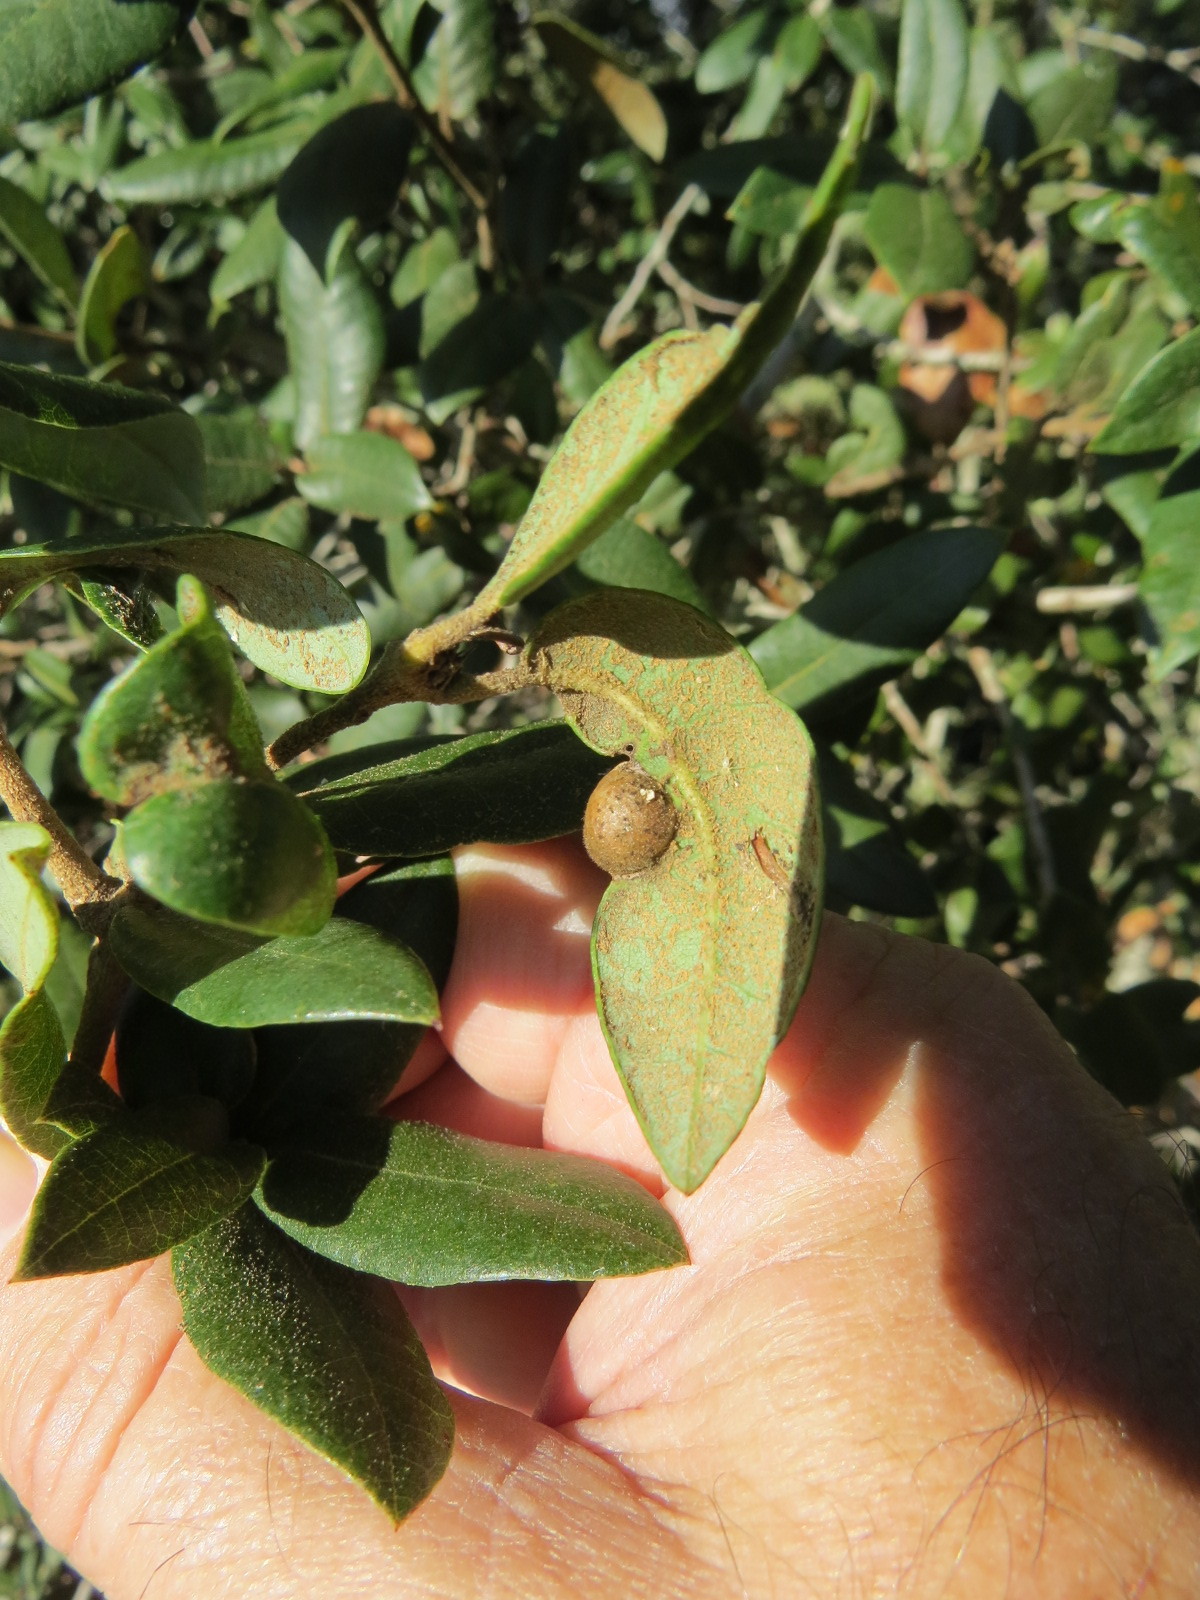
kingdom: Animalia
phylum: Arthropoda
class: Insecta
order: Hymenoptera
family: Cynipidae
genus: Heteroecus
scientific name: Heteroecus
